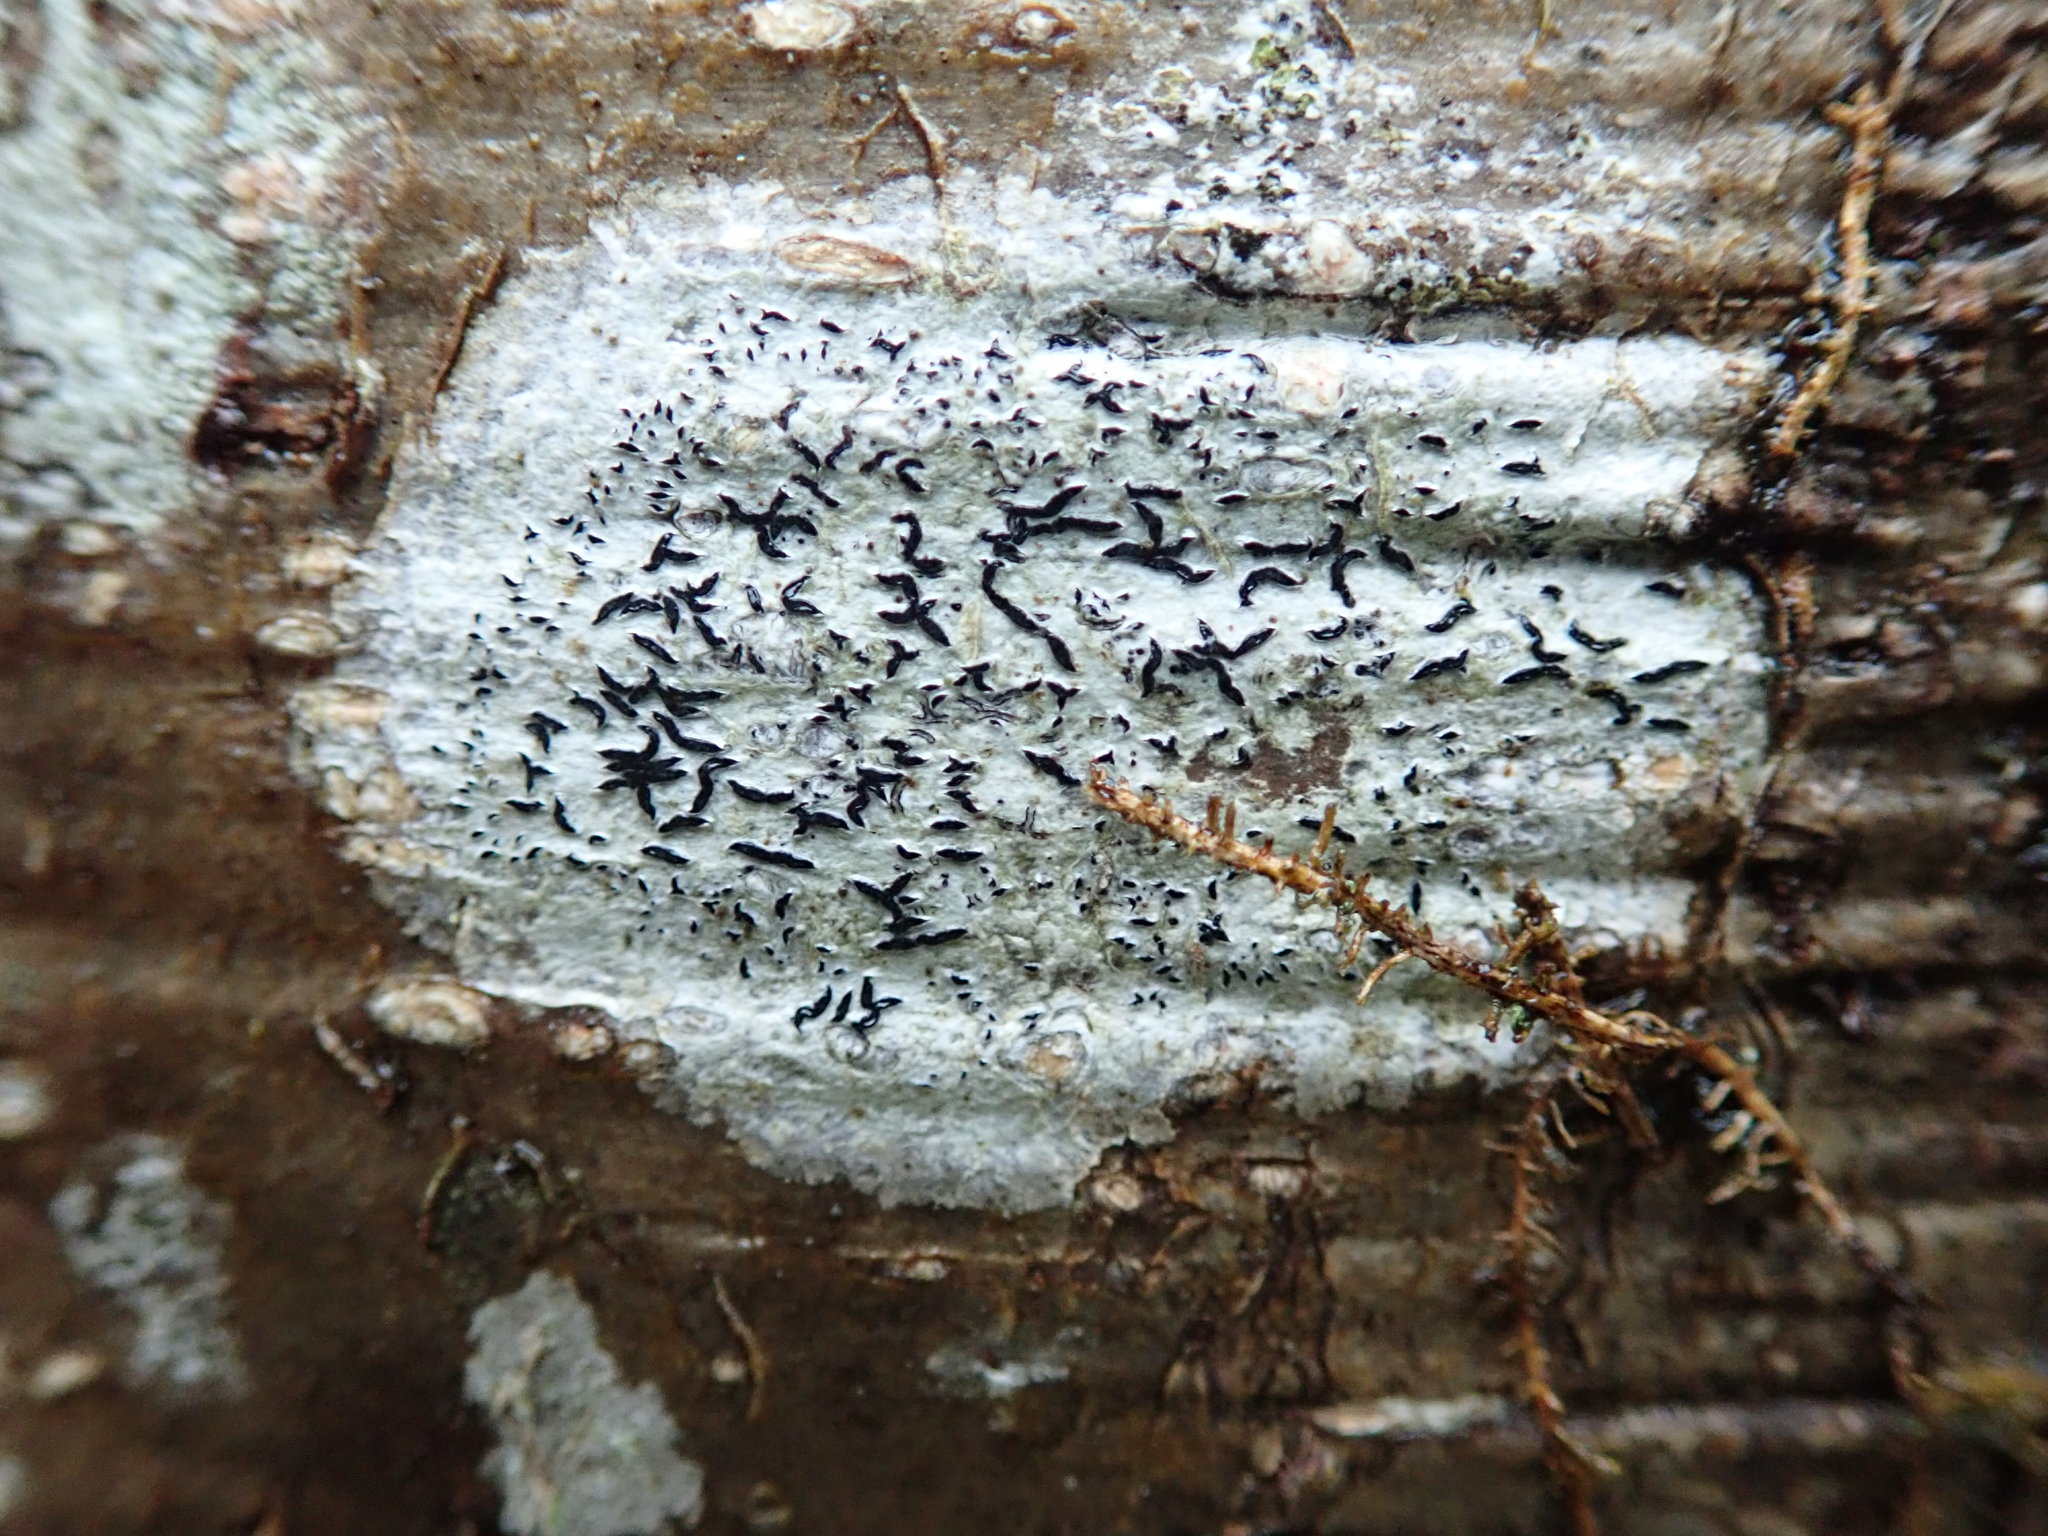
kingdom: Fungi
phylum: Ascomycota
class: Lecanoromycetes
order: Ostropales
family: Graphidaceae
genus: Graphis
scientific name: Graphis scripta
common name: Script lichen
